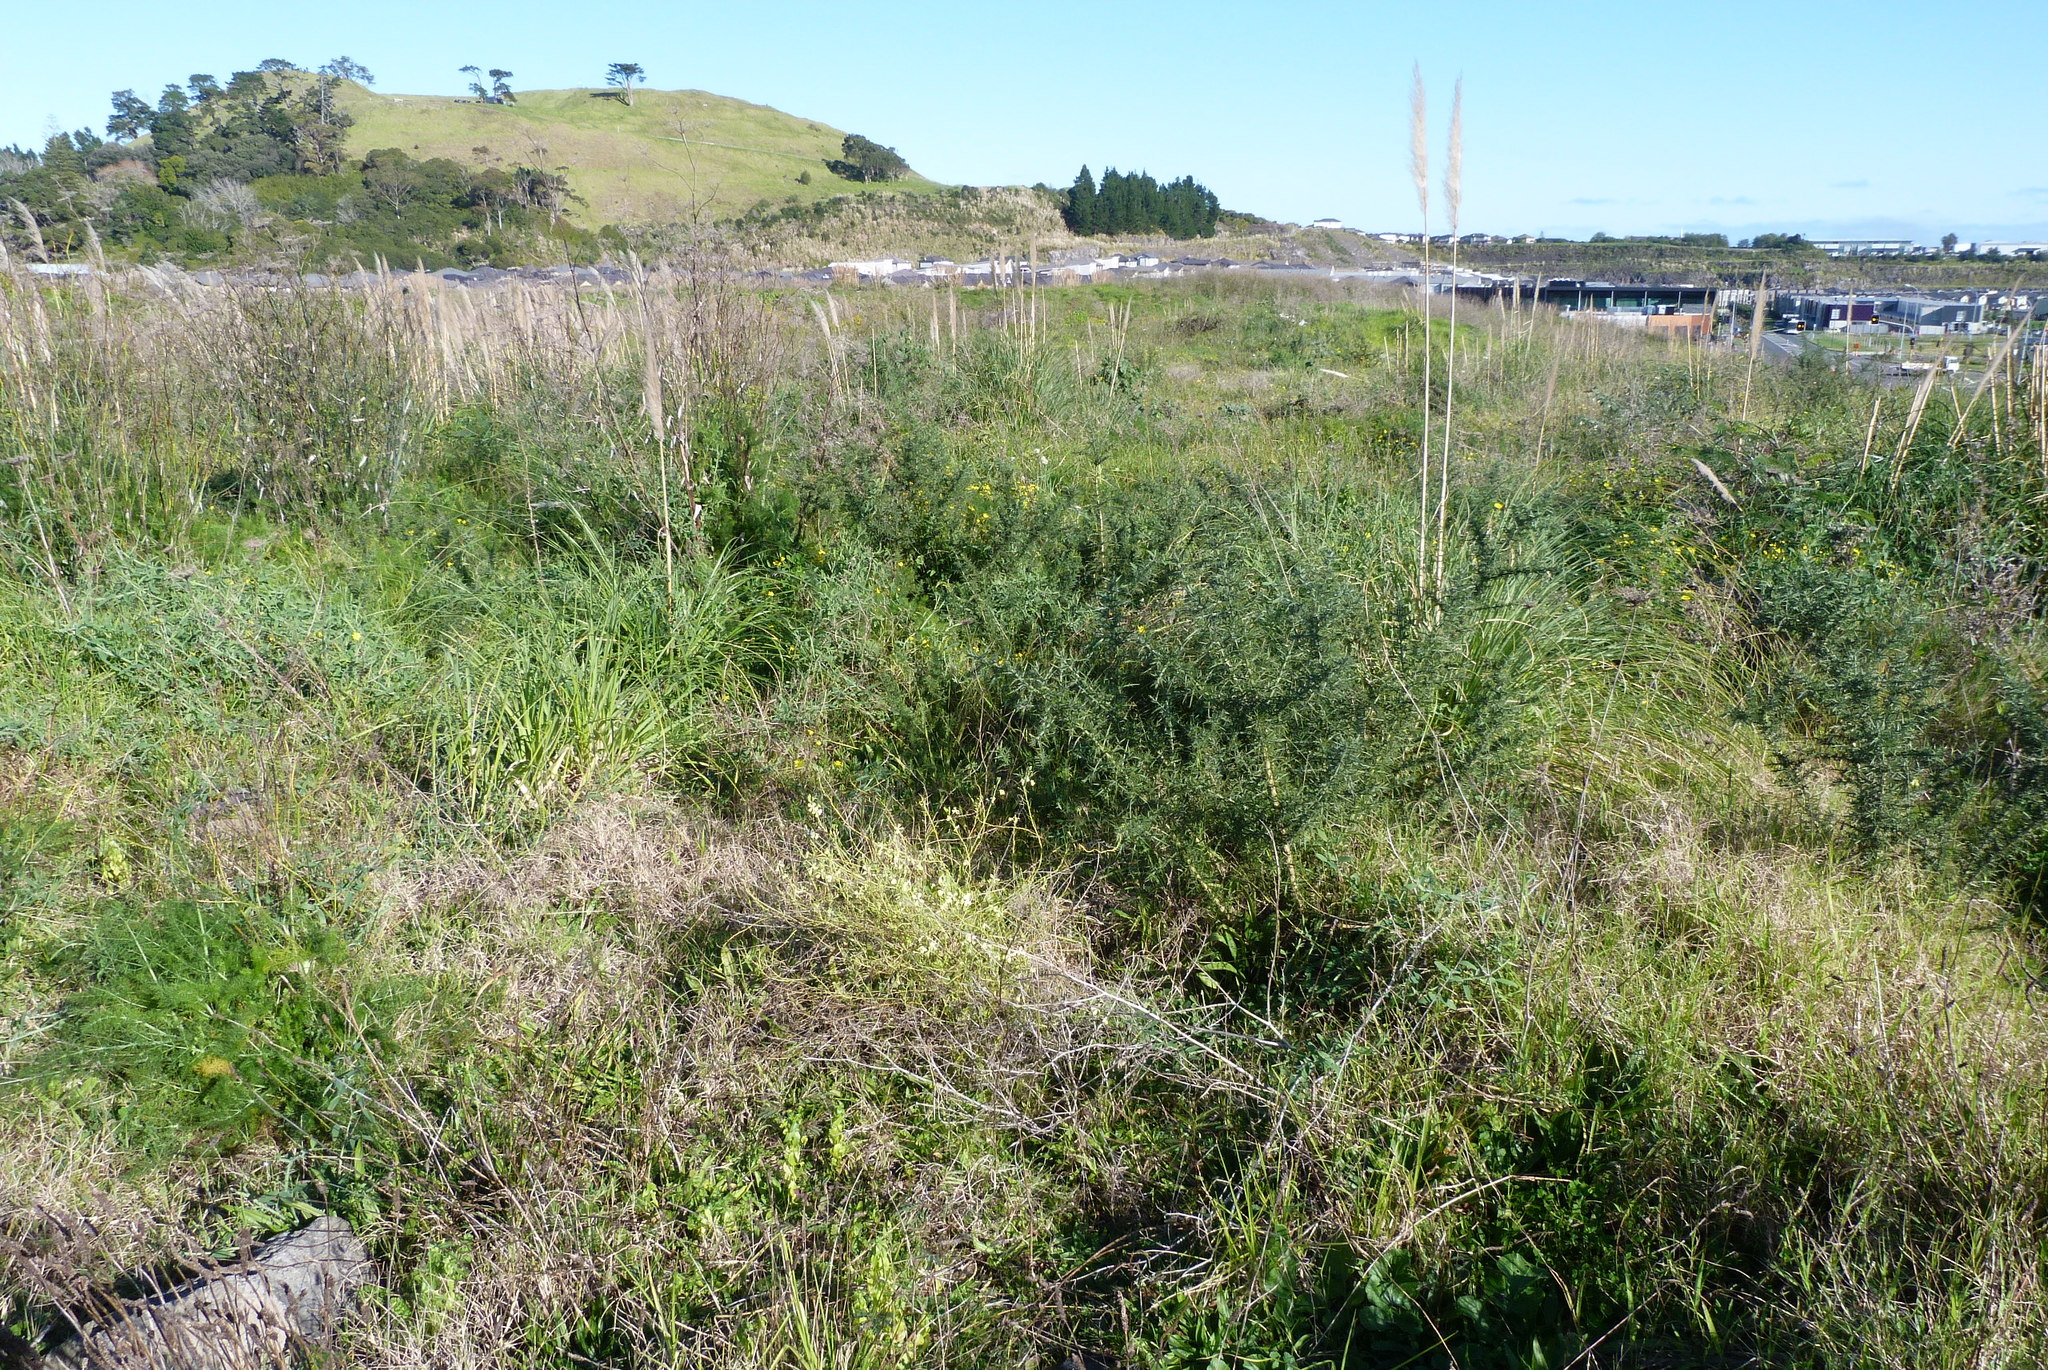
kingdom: Plantae
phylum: Tracheophyta
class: Magnoliopsida
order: Fabales
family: Fabaceae
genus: Ulex
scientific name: Ulex europaeus
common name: Common gorse
